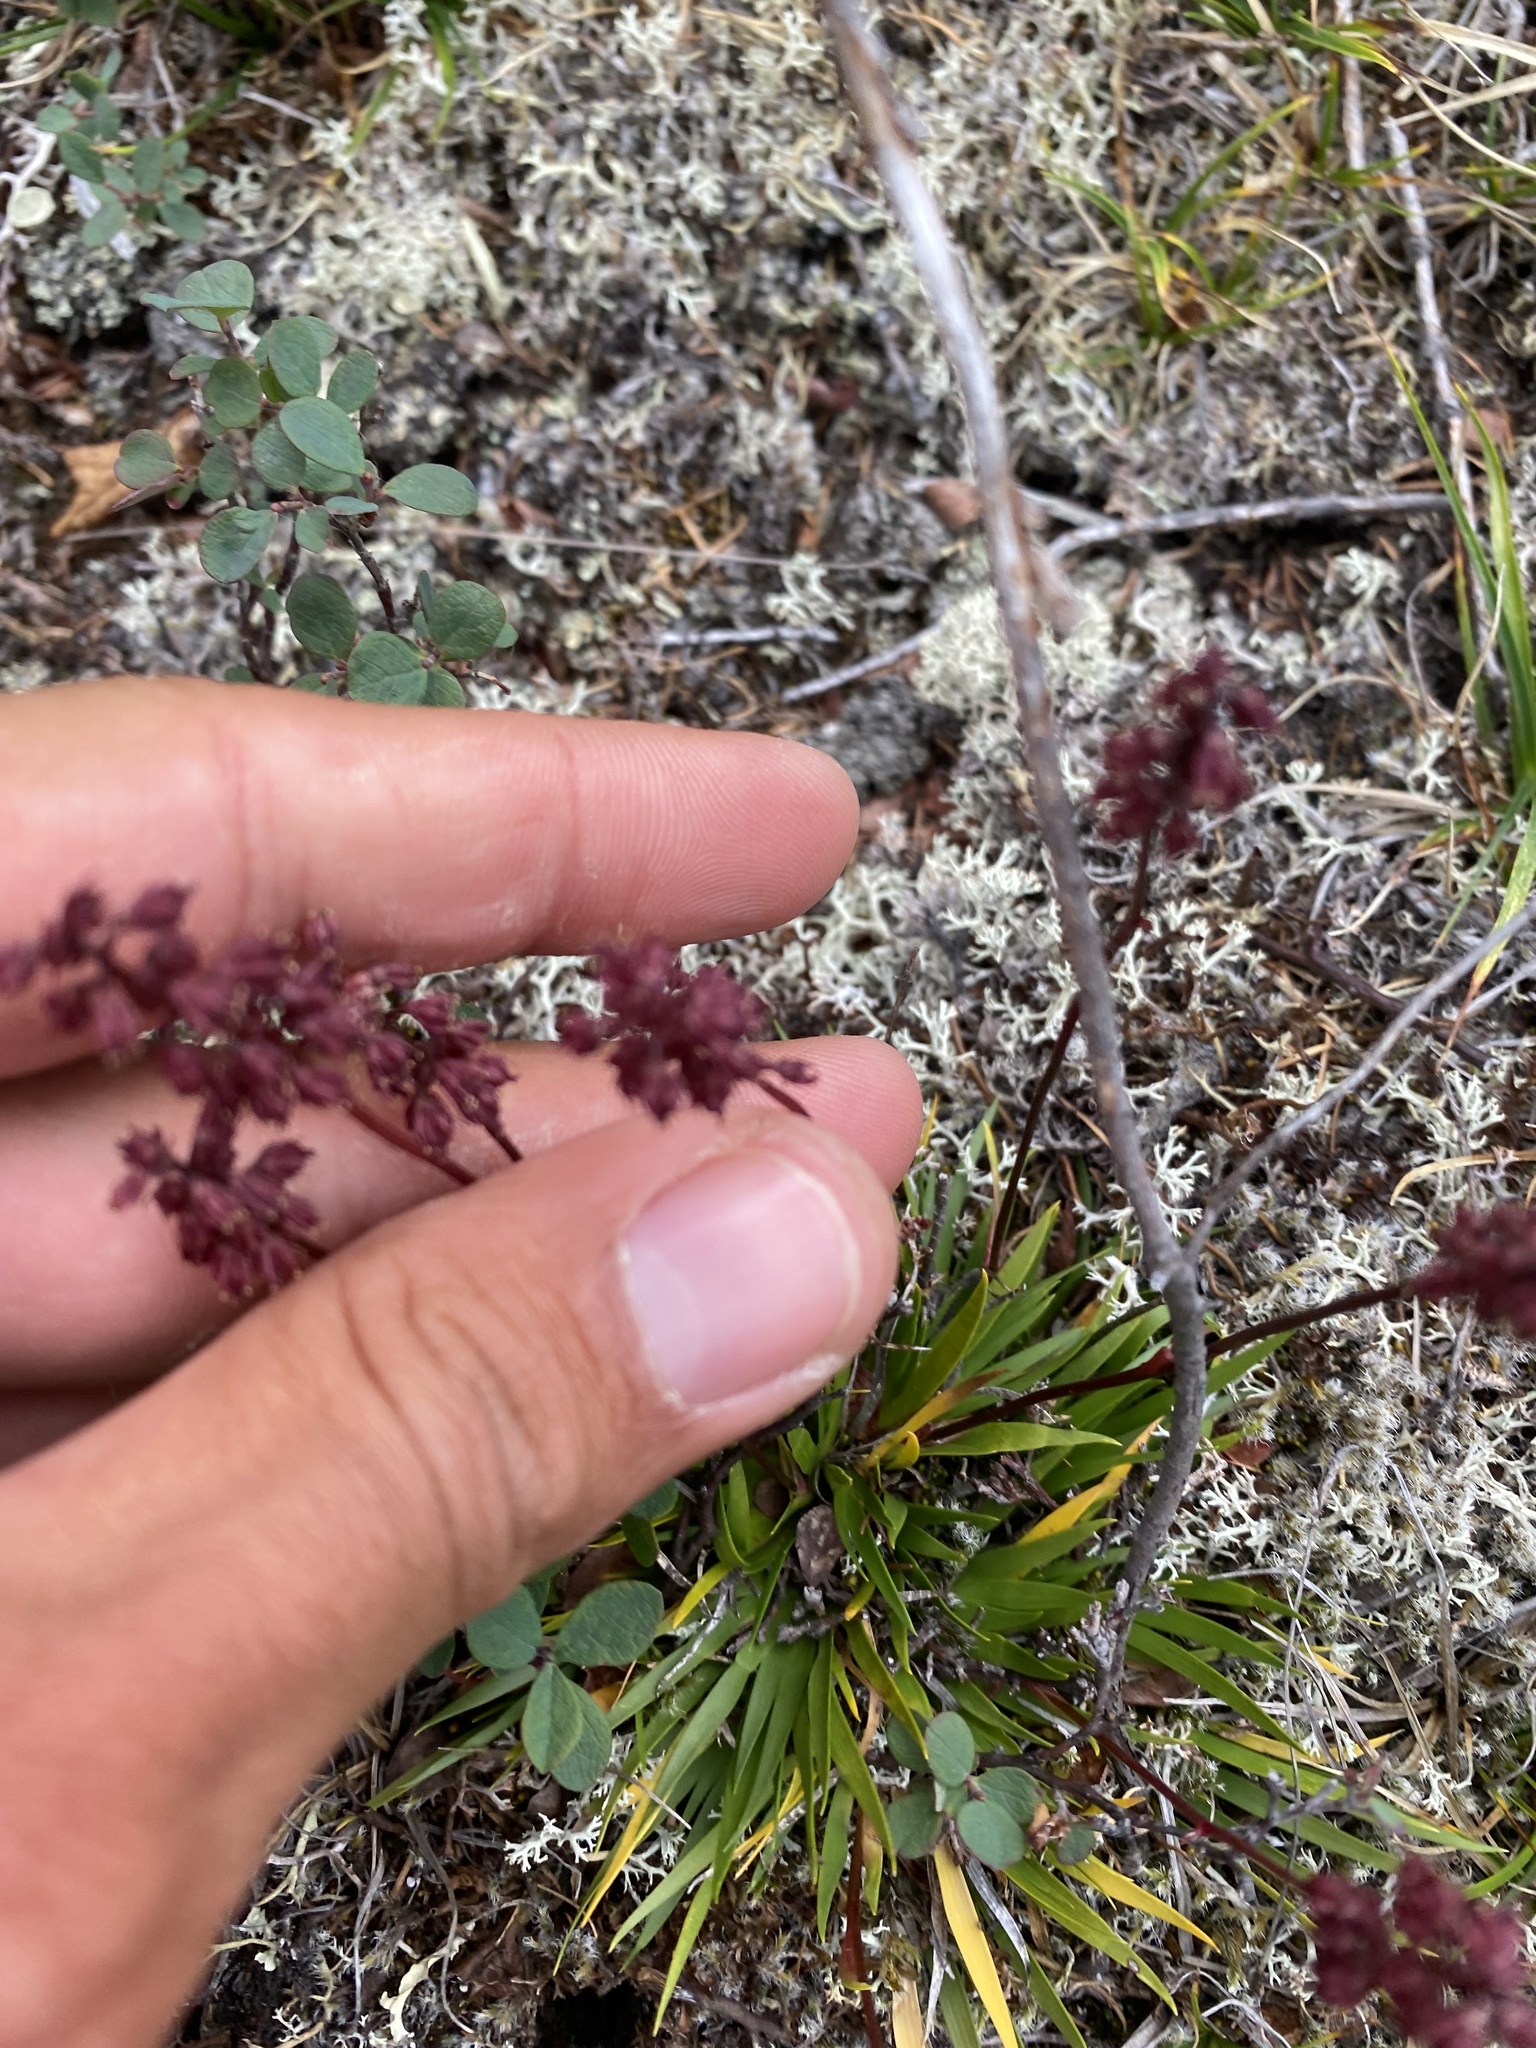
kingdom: Plantae
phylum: Tracheophyta
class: Liliopsida
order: Alismatales
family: Tofieldiaceae
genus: Tofieldia
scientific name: Tofieldia coccinea
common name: Northern false asphodel
